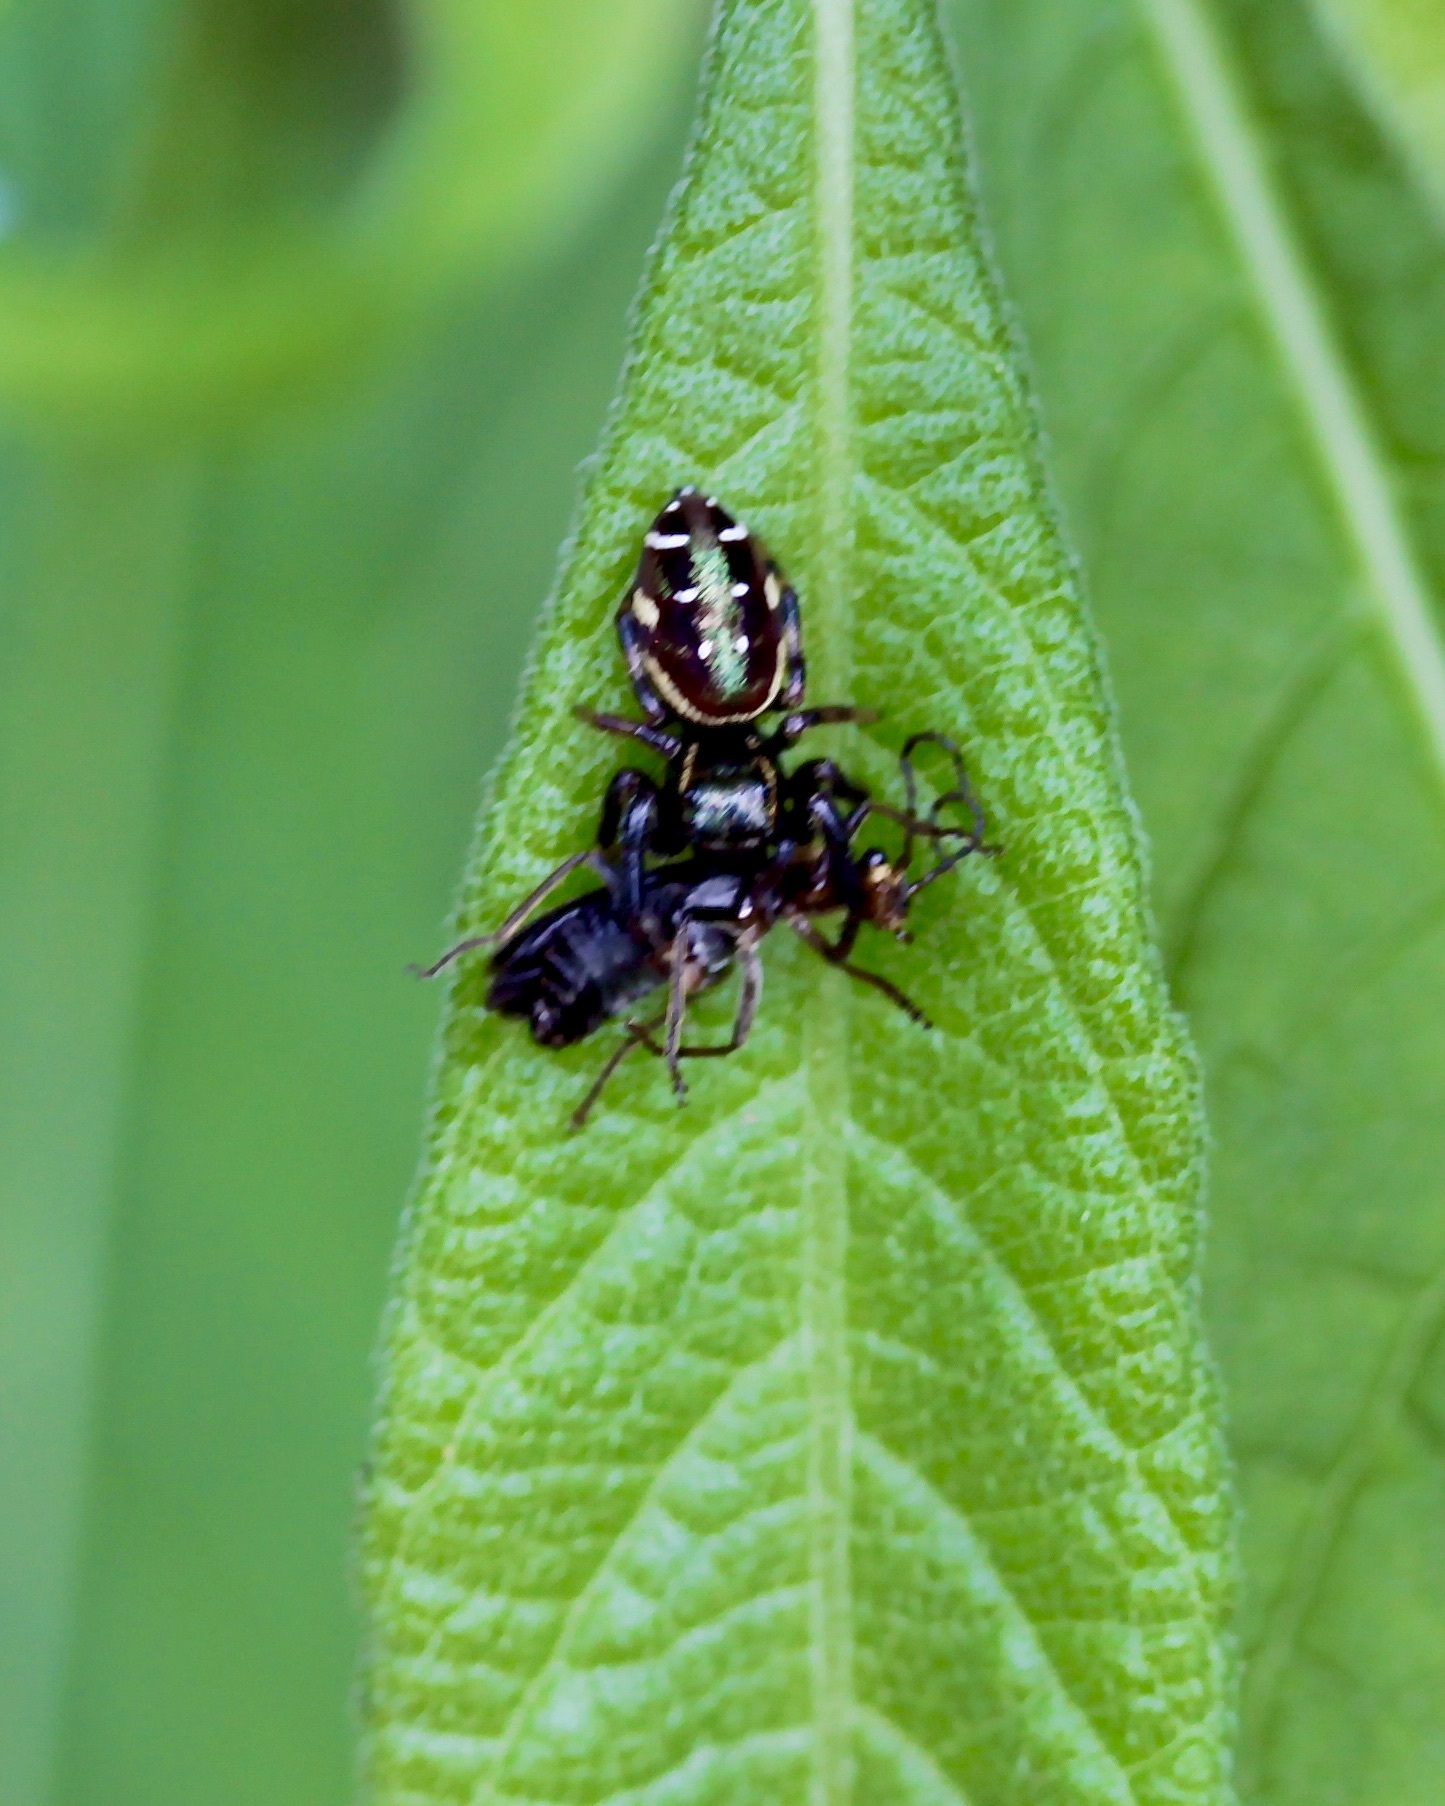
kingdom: Animalia
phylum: Arthropoda
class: Arachnida
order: Araneae
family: Salticidae
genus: Paraphidippus
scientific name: Paraphidippus aurantius
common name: Jumping spiders
